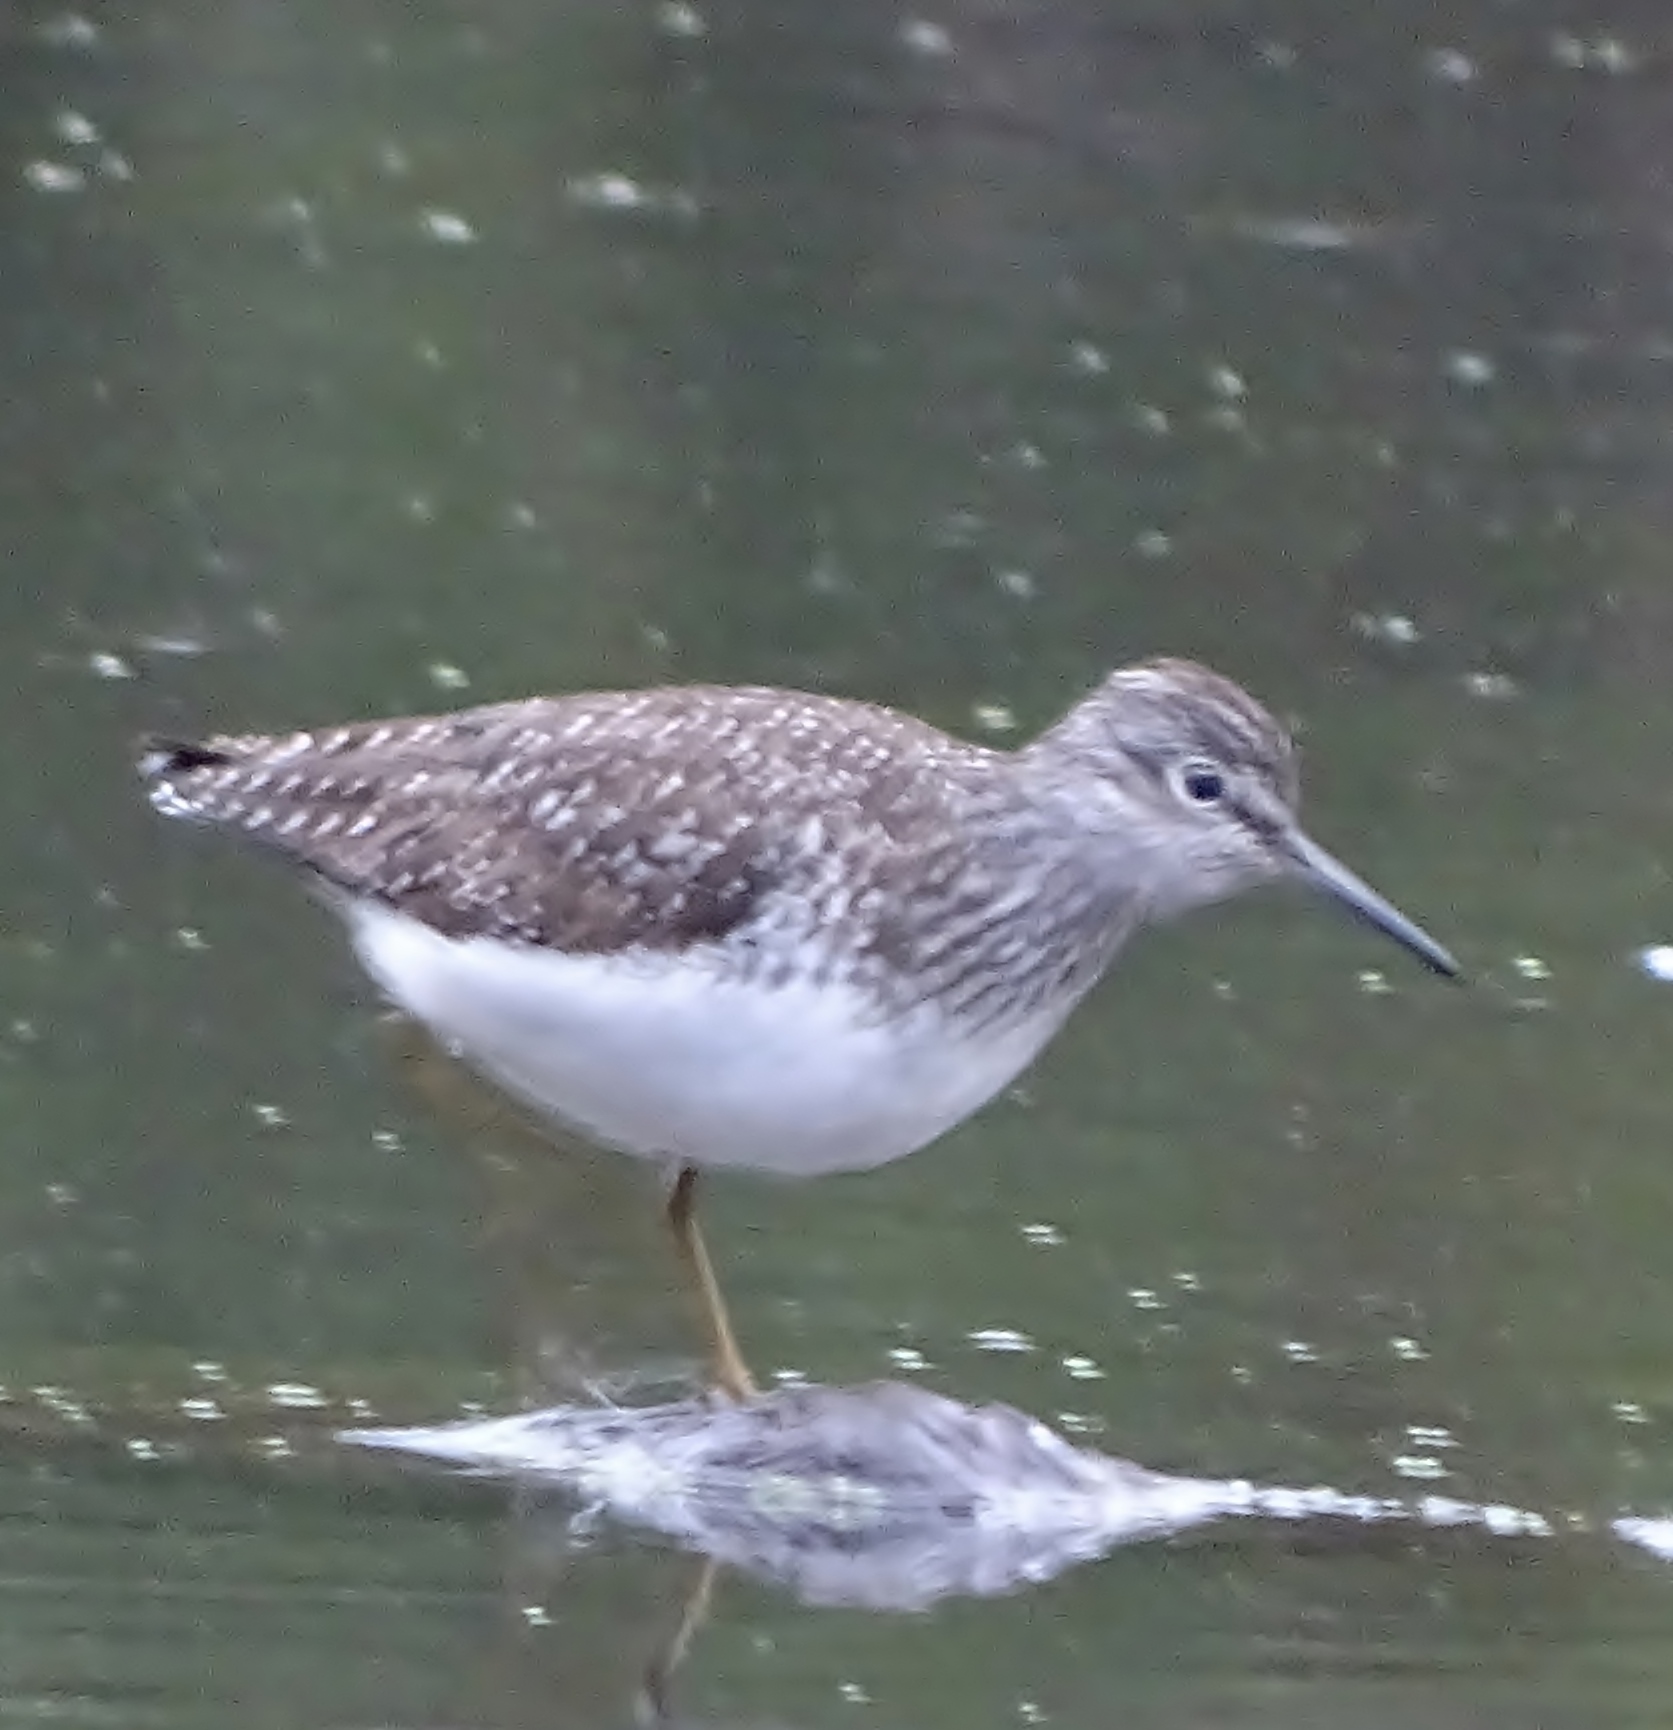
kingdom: Animalia
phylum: Chordata
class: Aves
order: Charadriiformes
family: Scolopacidae
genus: Tringa
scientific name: Tringa solitaria
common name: Solitary sandpiper
